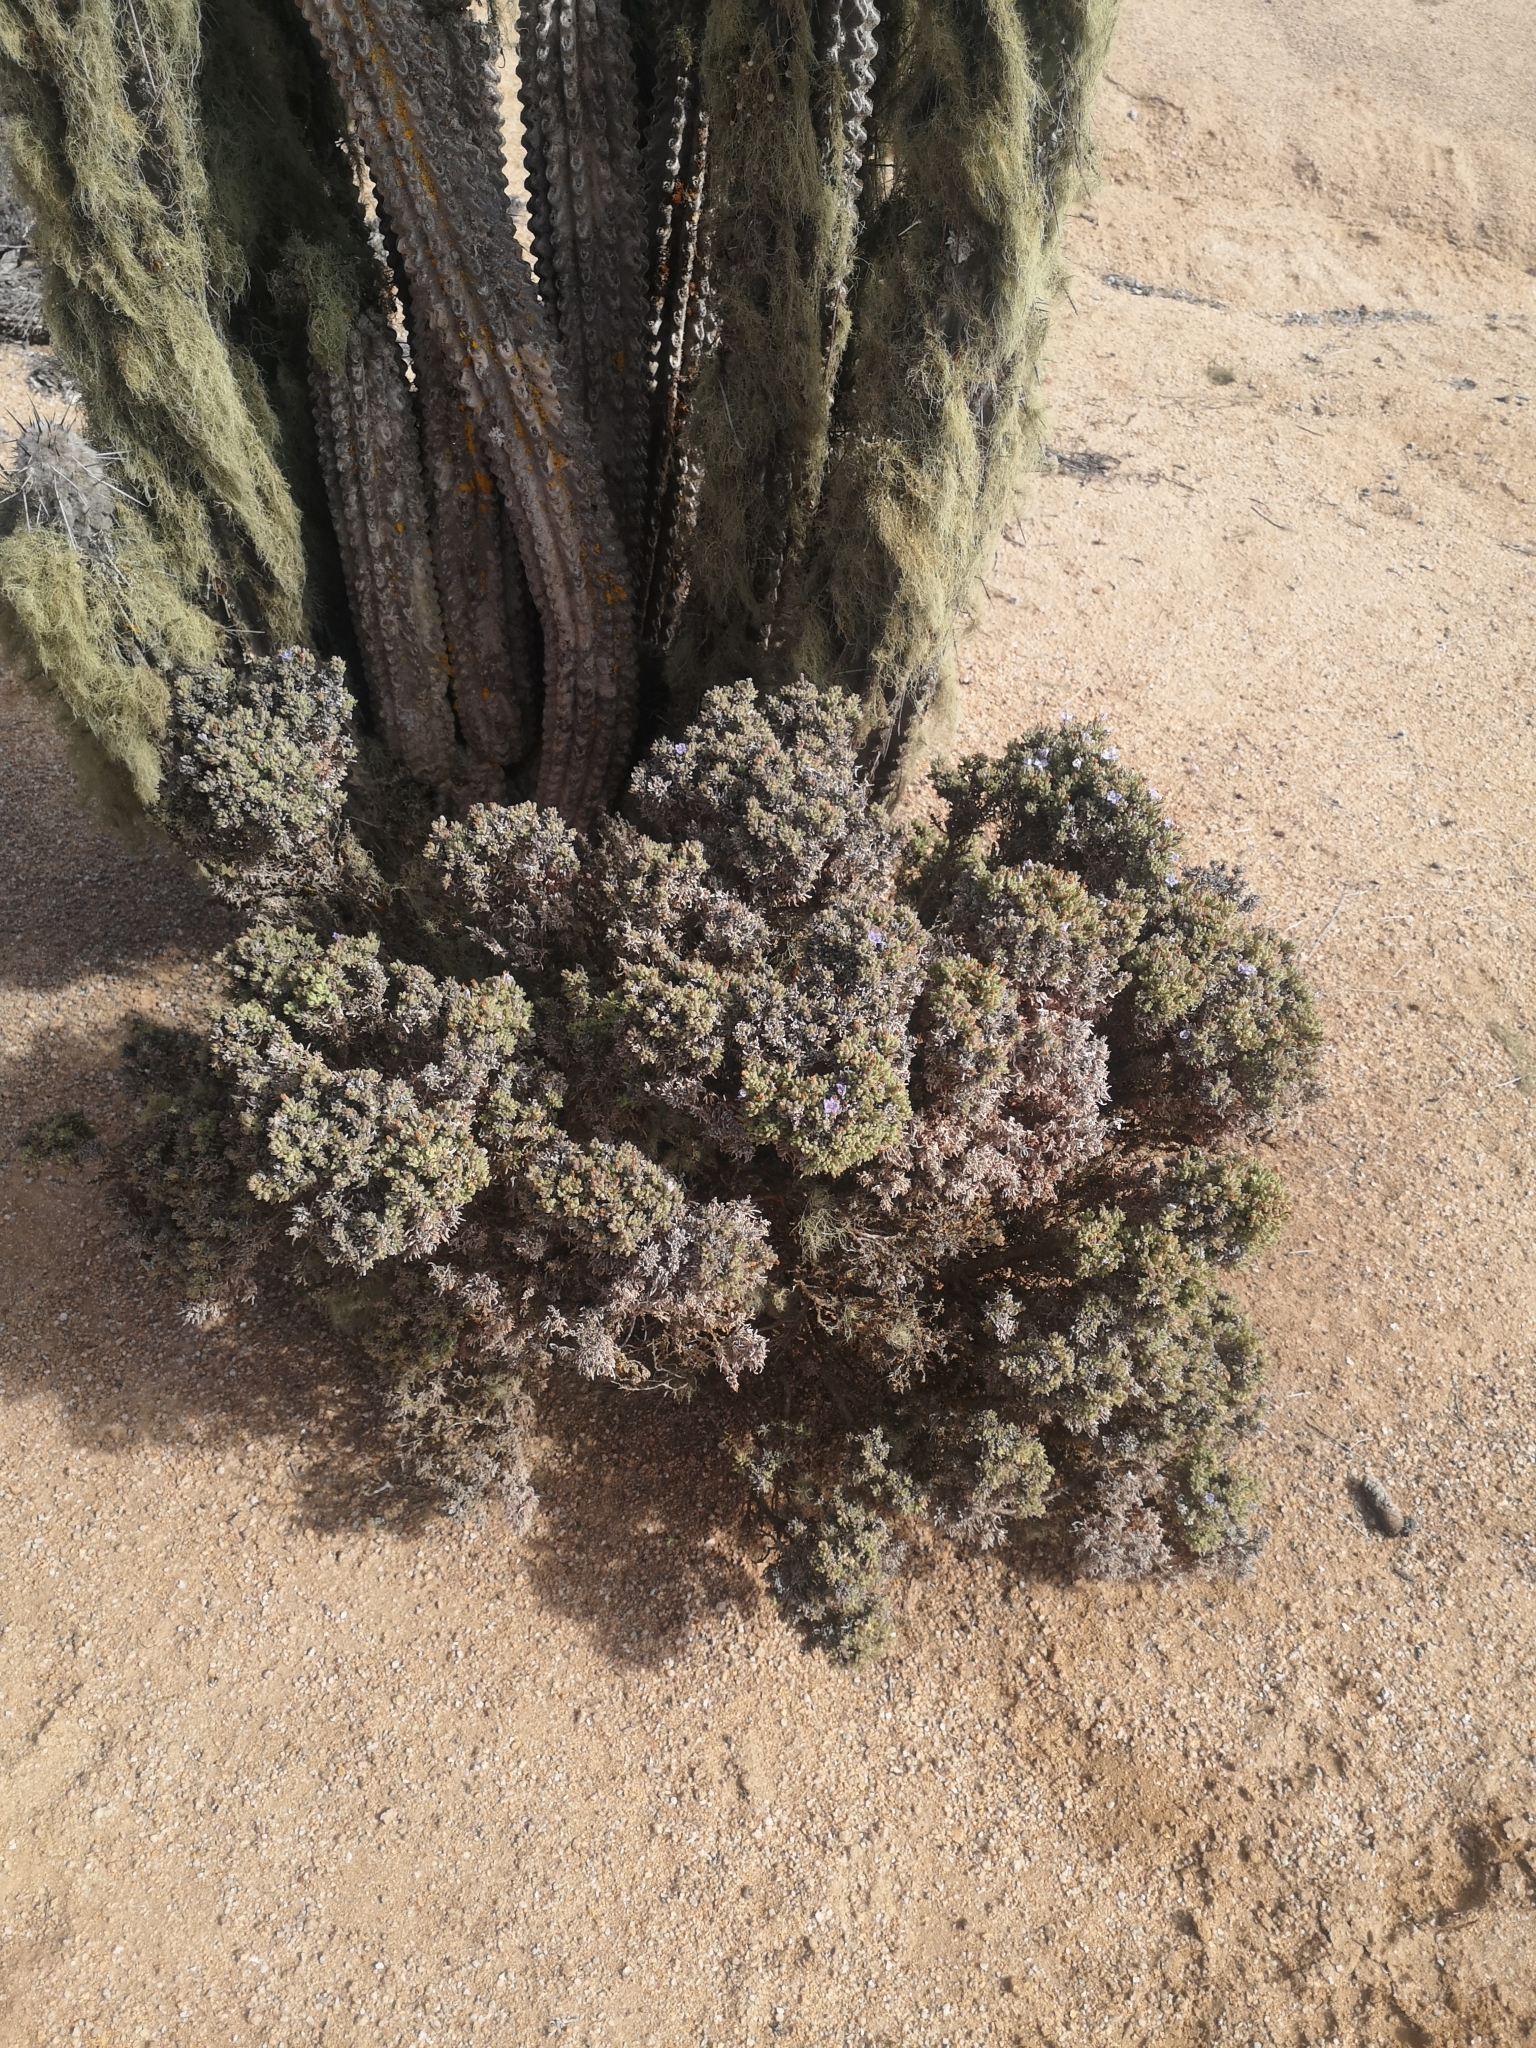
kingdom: Plantae
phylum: Tracheophyta
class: Magnoliopsida
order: Solanales
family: Solanaceae
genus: Nolana
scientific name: Nolana salsoloides
